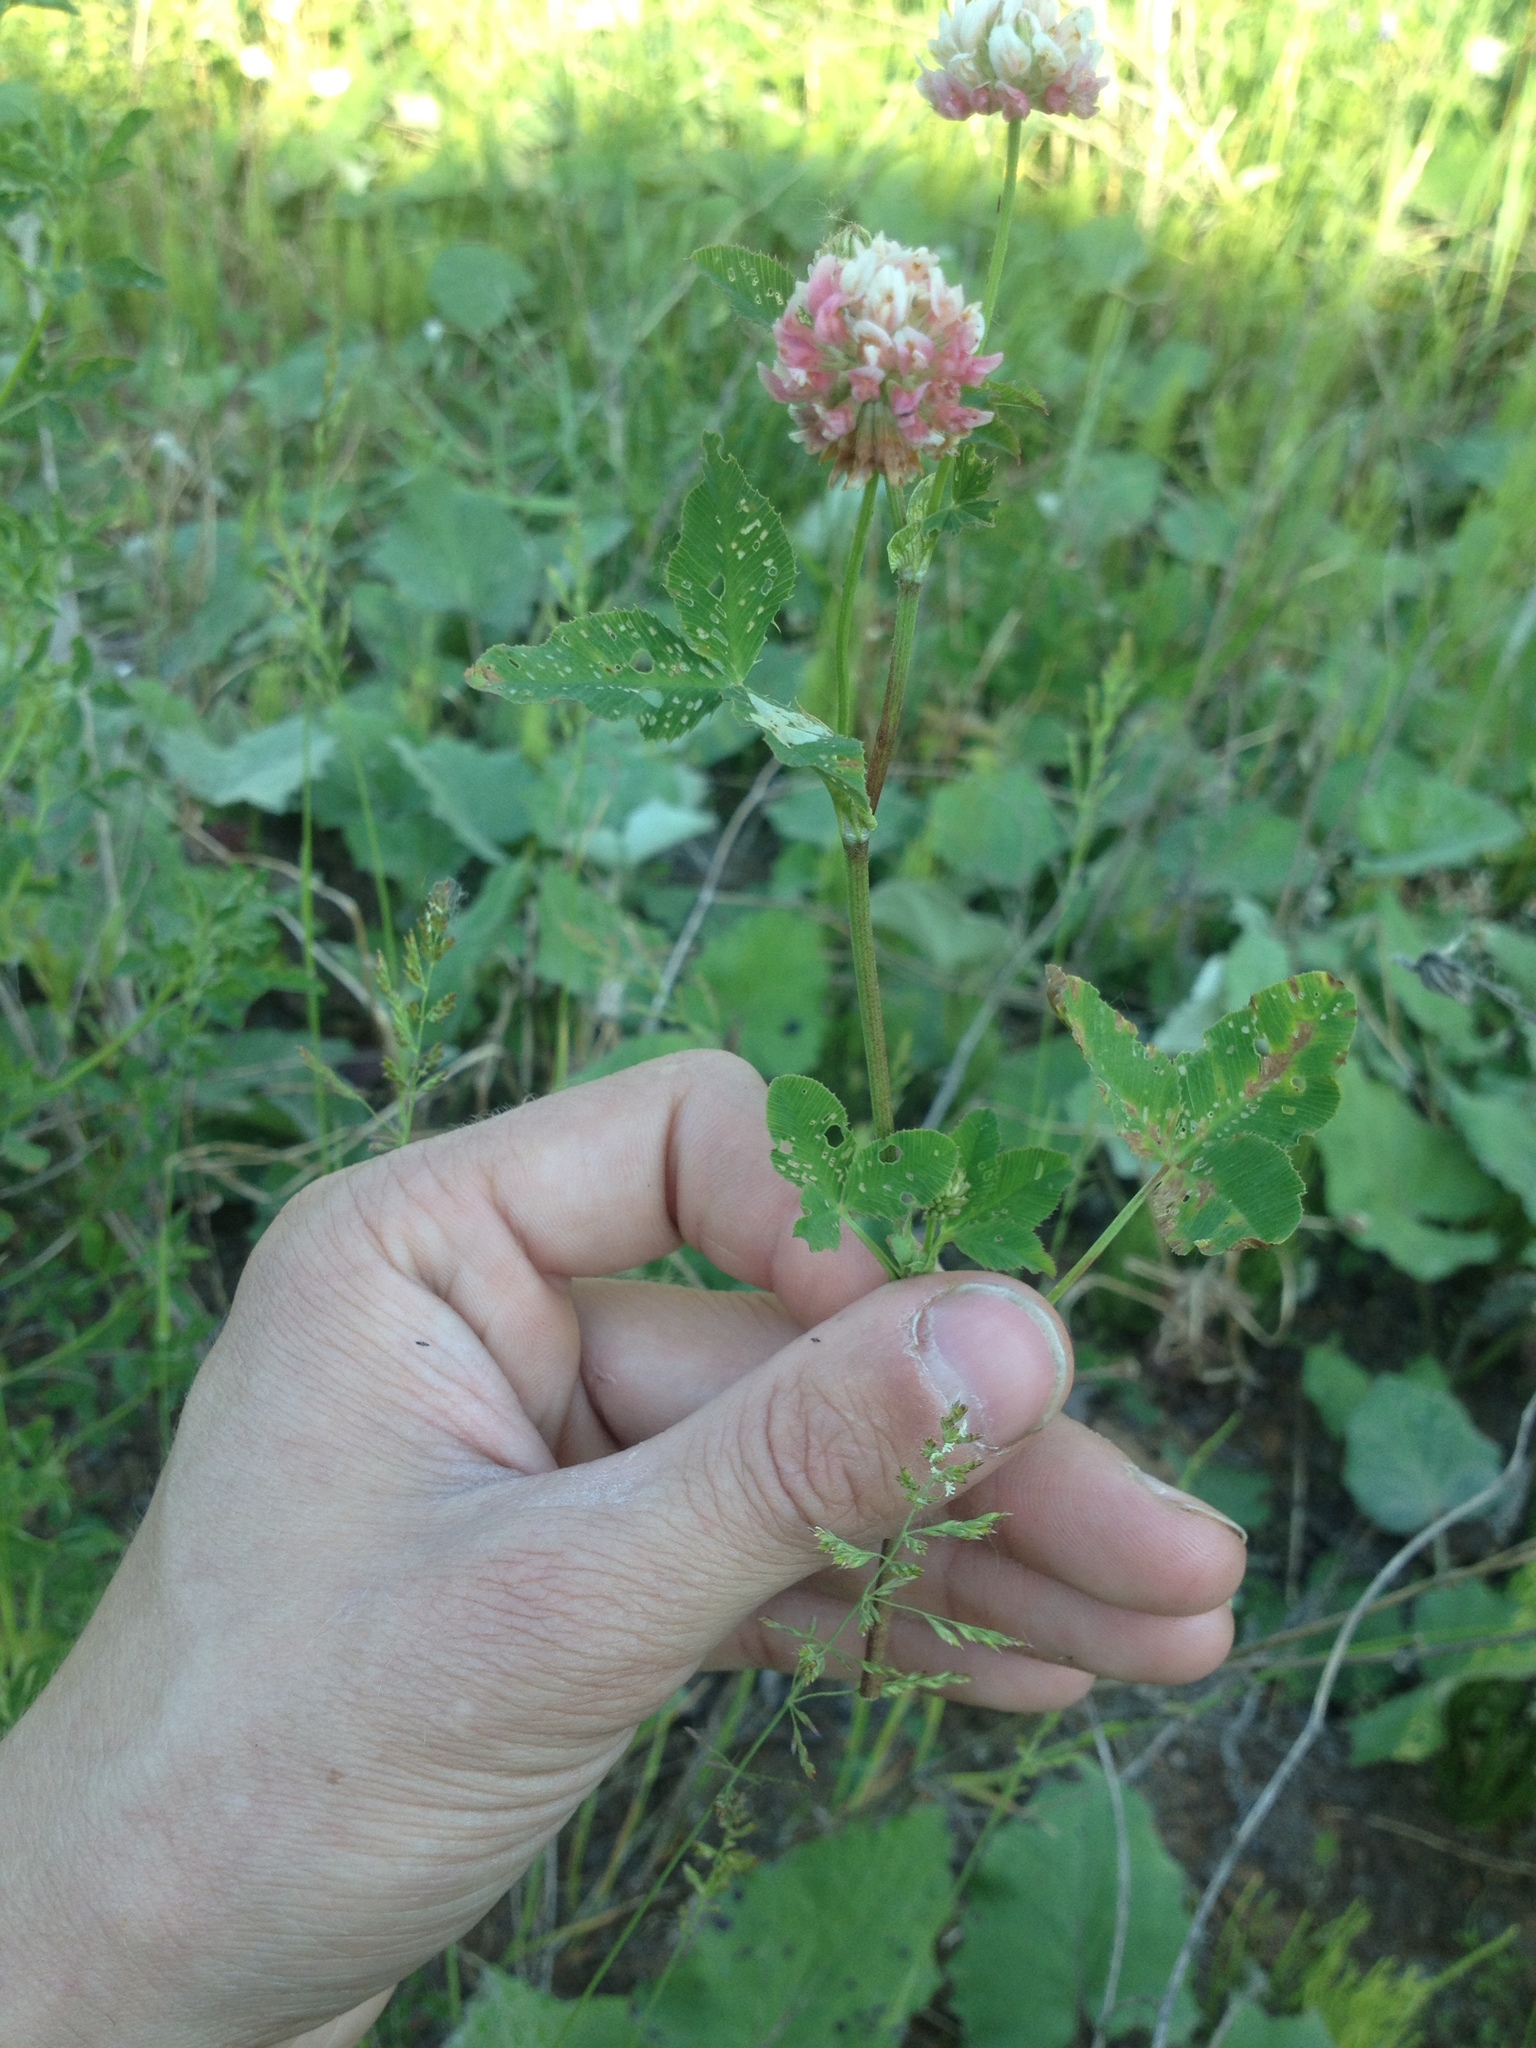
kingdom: Plantae
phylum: Tracheophyta
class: Magnoliopsida
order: Fabales
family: Fabaceae
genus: Trifolium
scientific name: Trifolium hybridum
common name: Alsike clover
